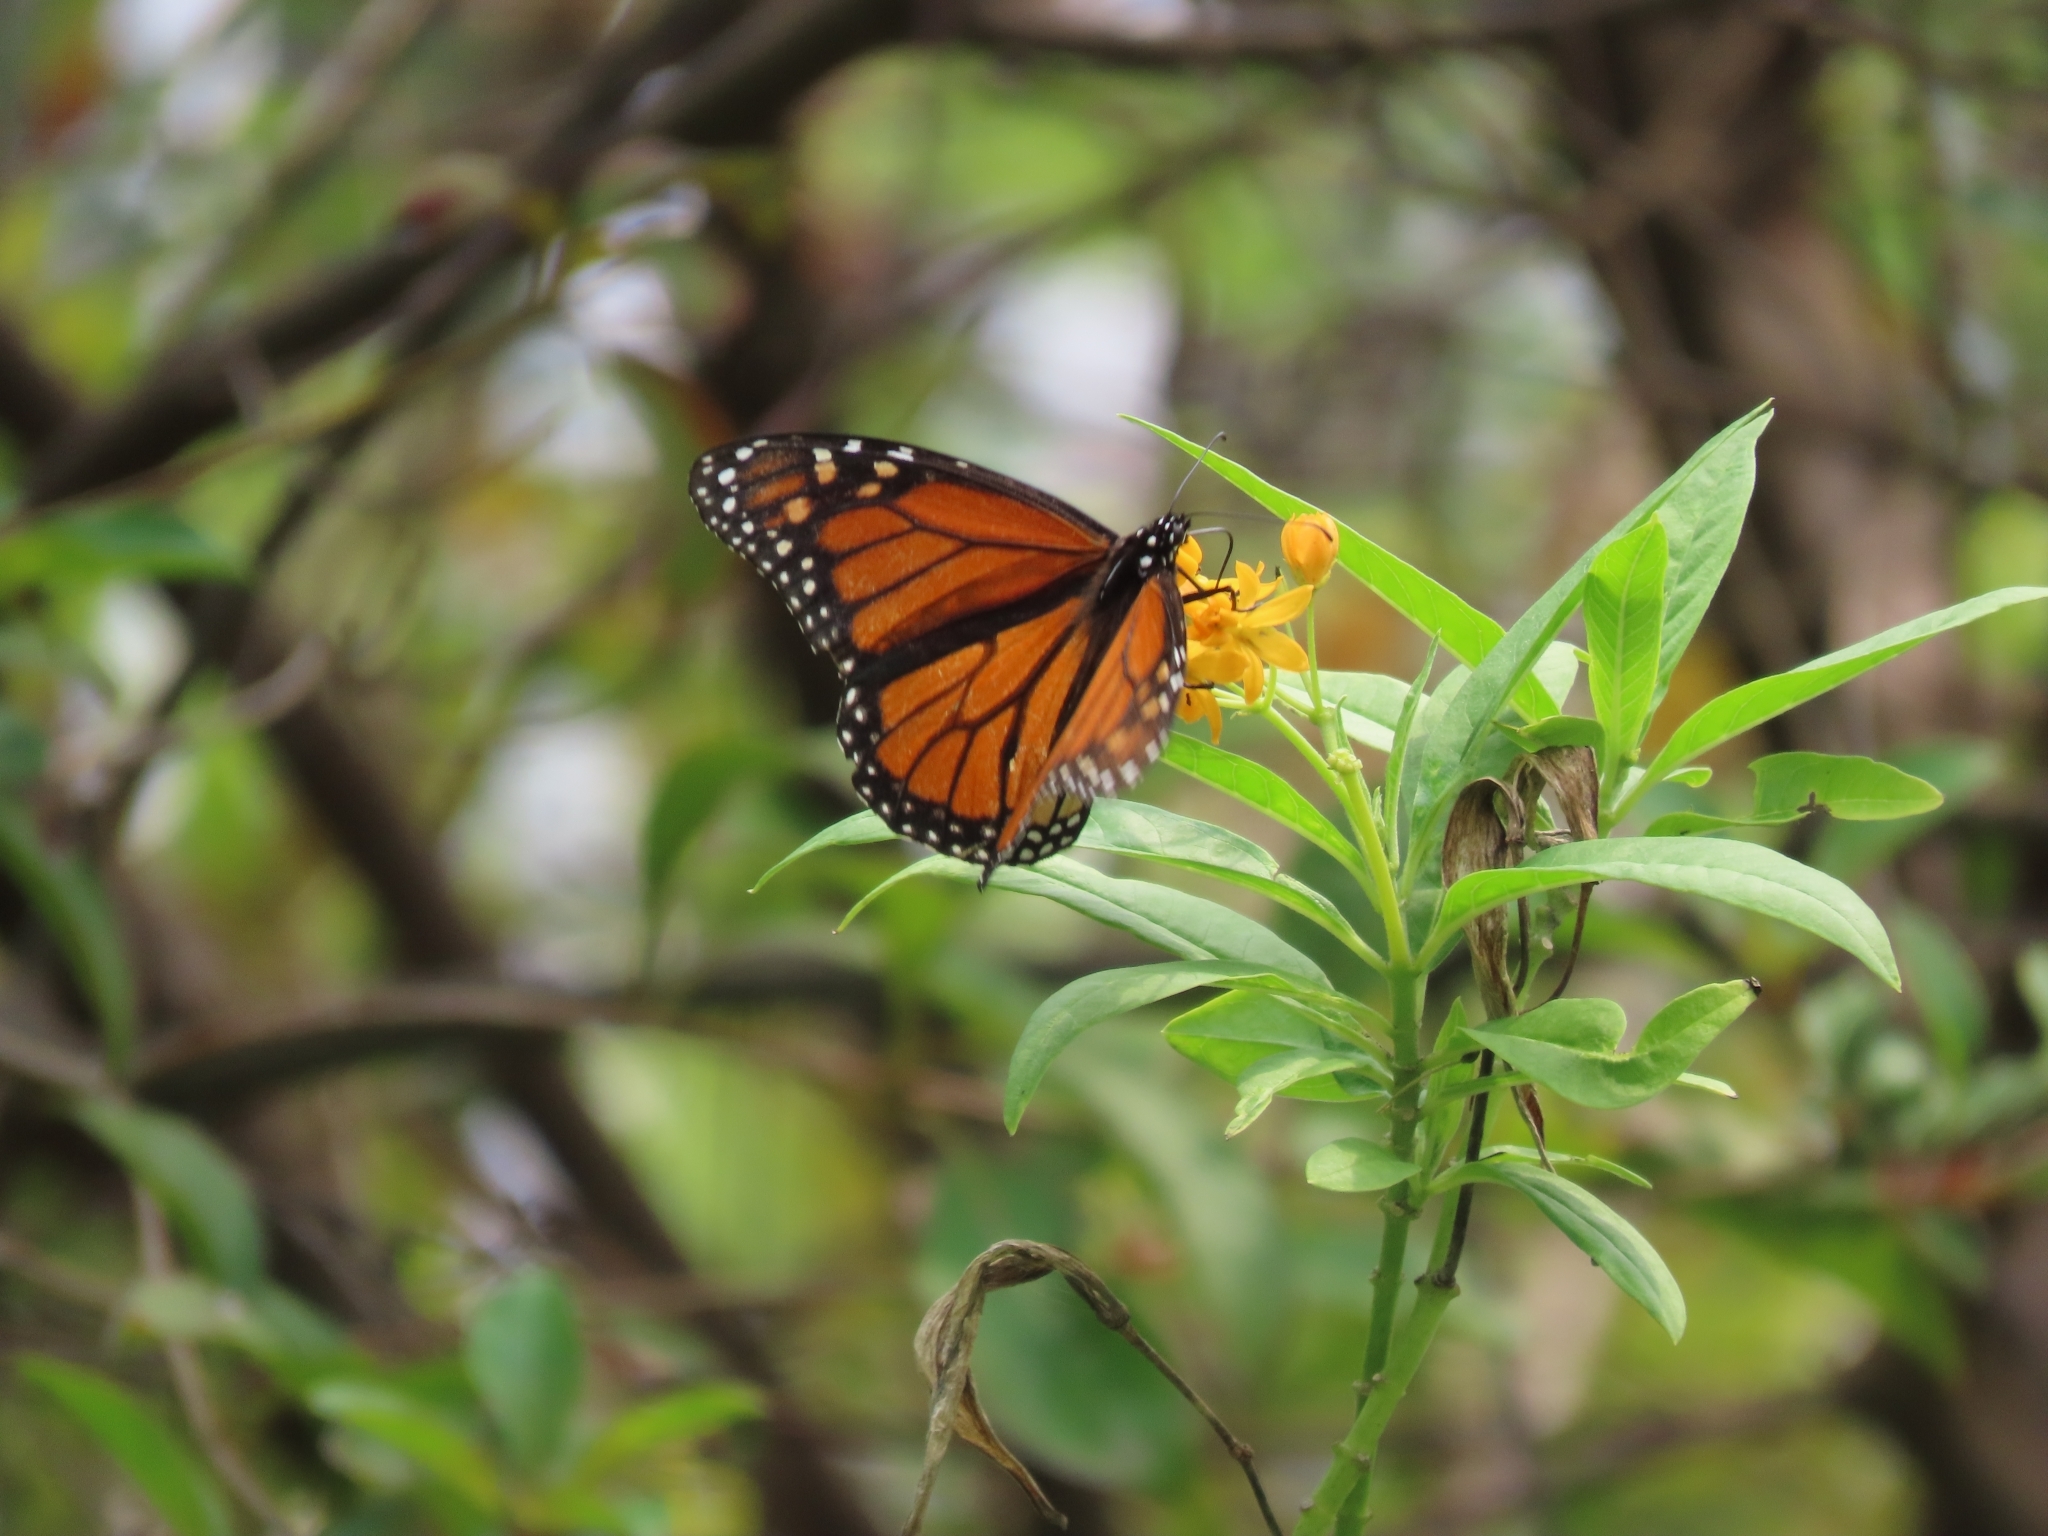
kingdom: Animalia
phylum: Arthropoda
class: Insecta
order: Lepidoptera
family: Nymphalidae
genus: Danaus
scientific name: Danaus plexippus
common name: Monarch
